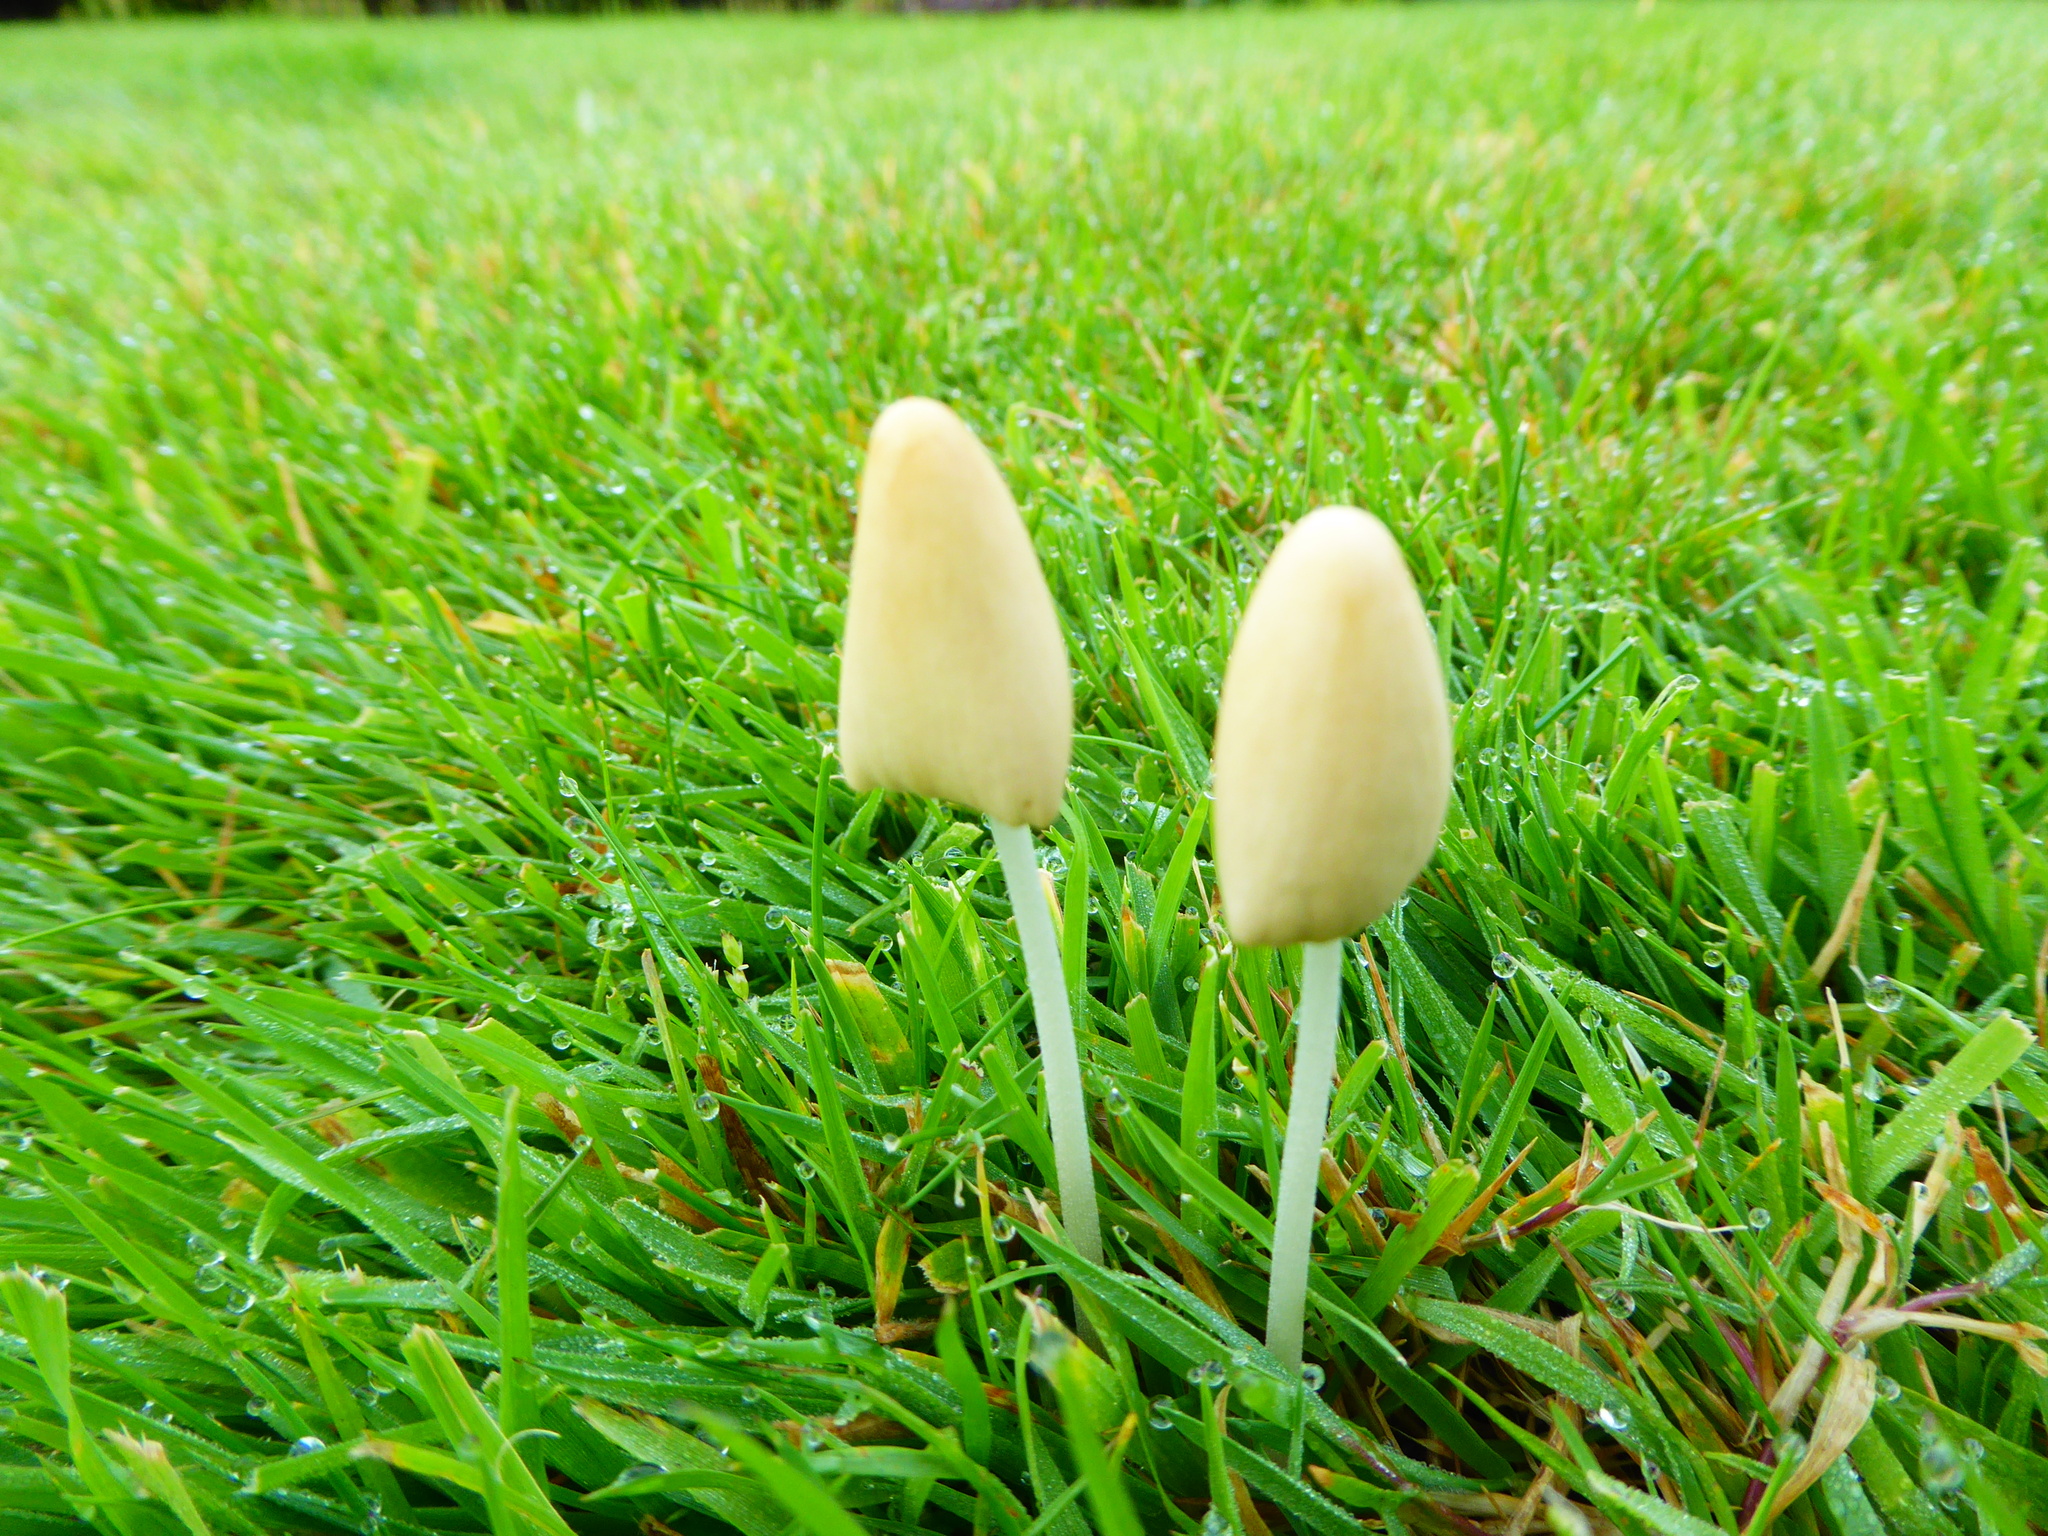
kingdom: Fungi
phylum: Basidiomycota
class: Agaricomycetes
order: Agaricales
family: Bolbitiaceae
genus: Conocybe
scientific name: Conocybe apala
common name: Milky conecap
